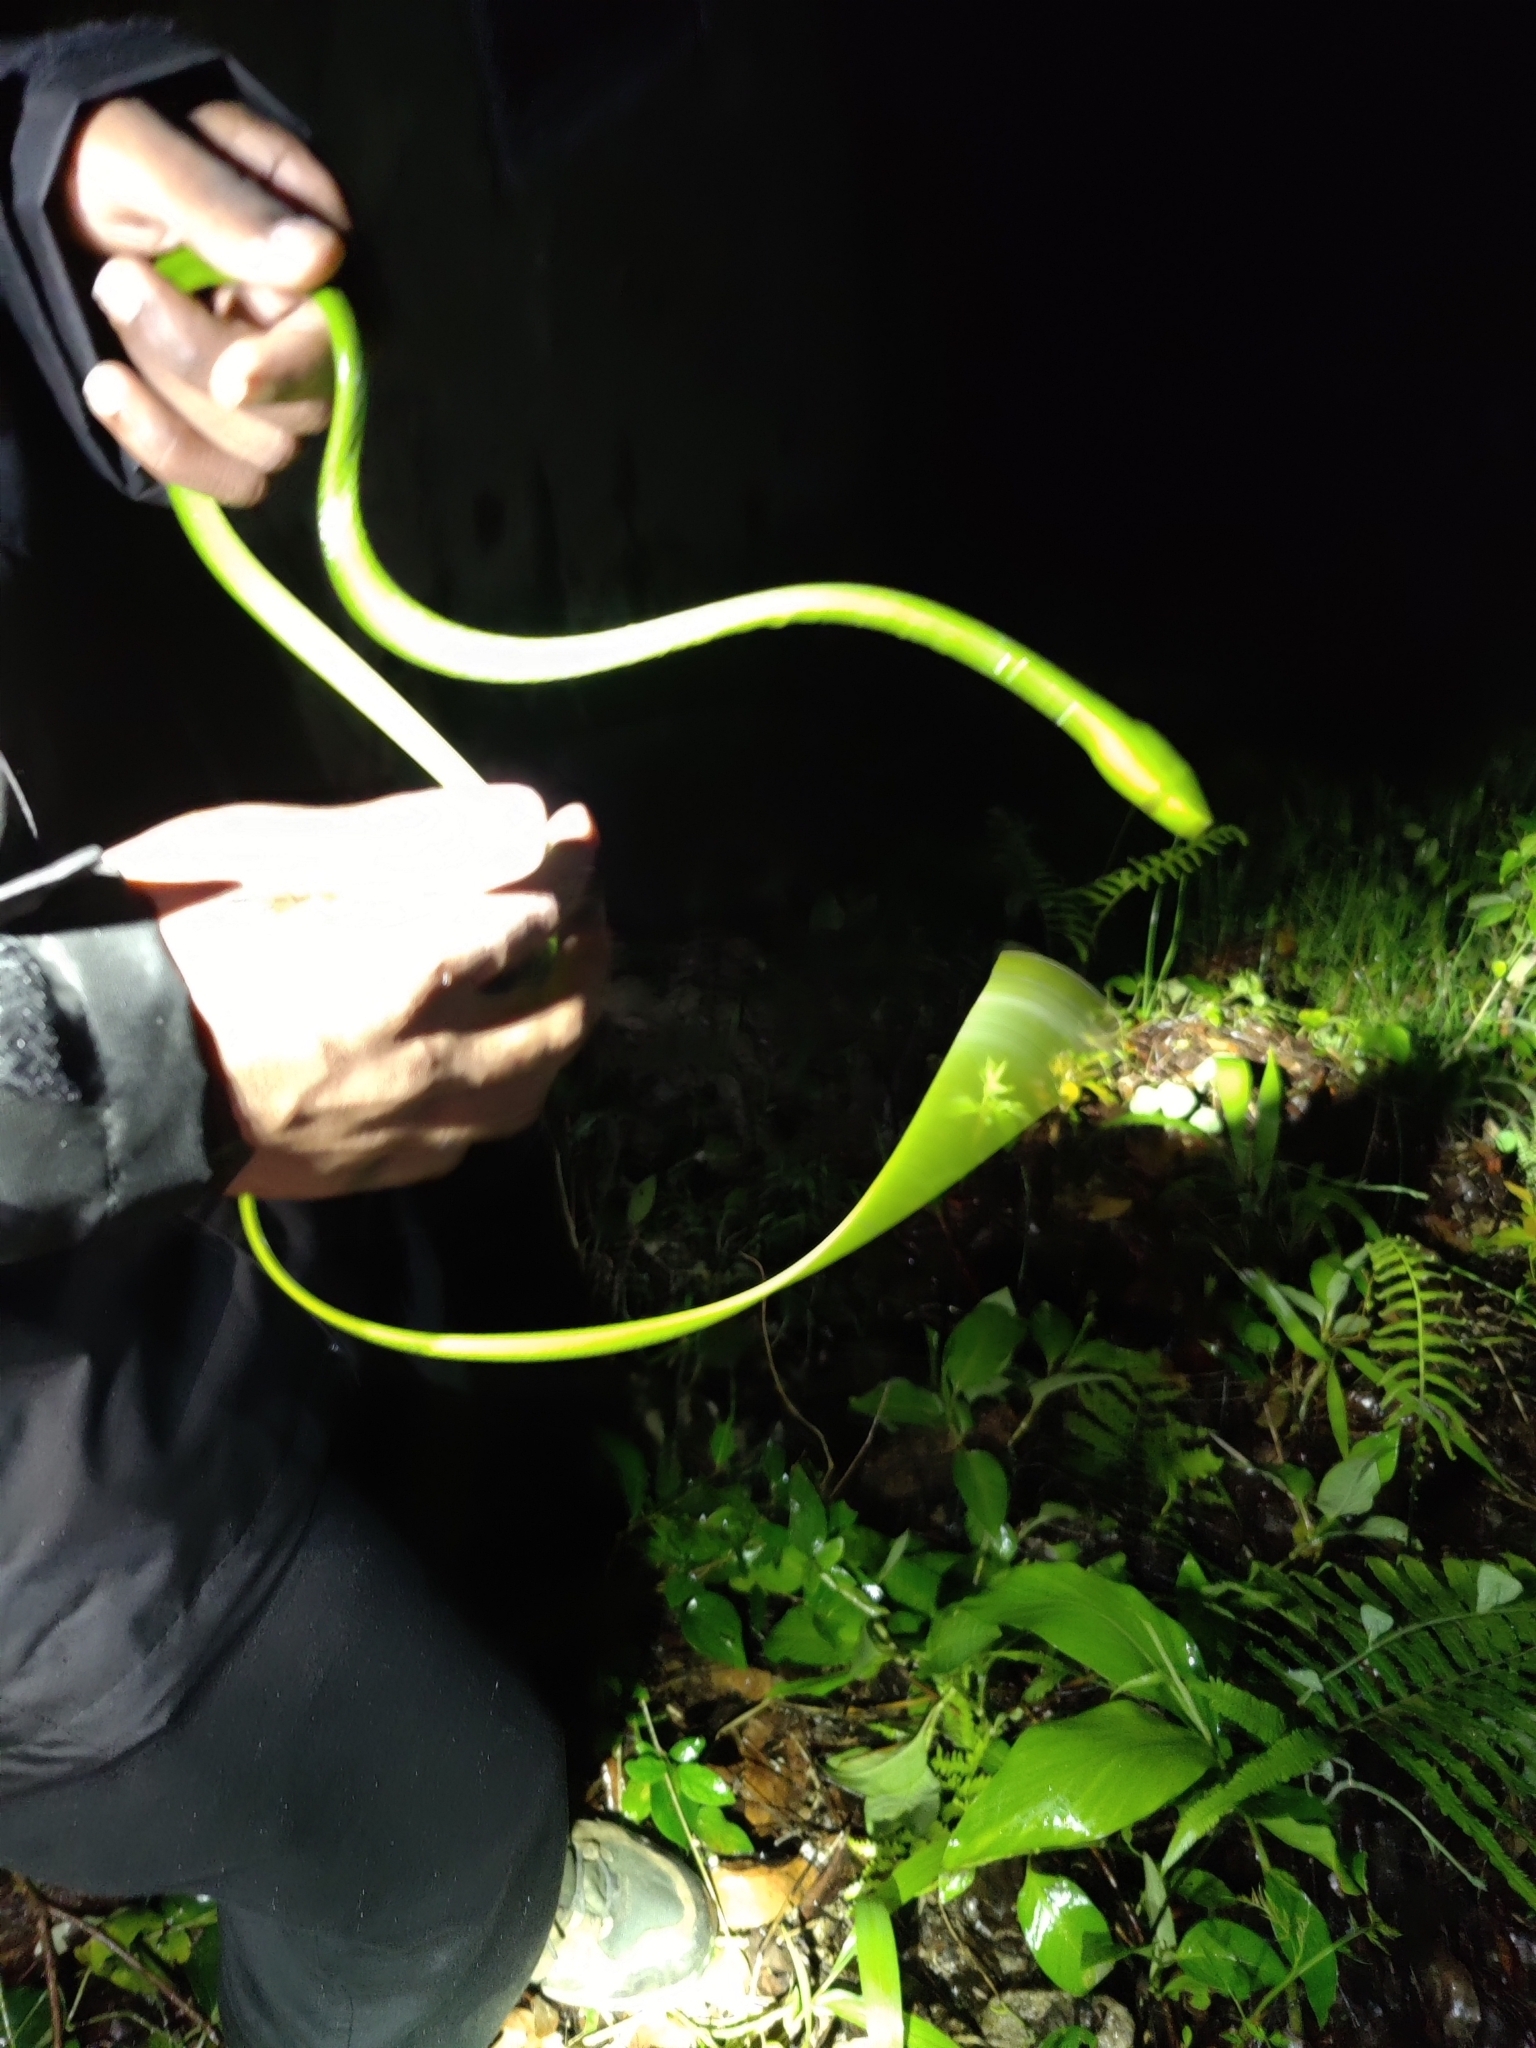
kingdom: Animalia
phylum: Chordata
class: Squamata
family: Colubridae
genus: Ahaetulla
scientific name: Ahaetulla isabellina
